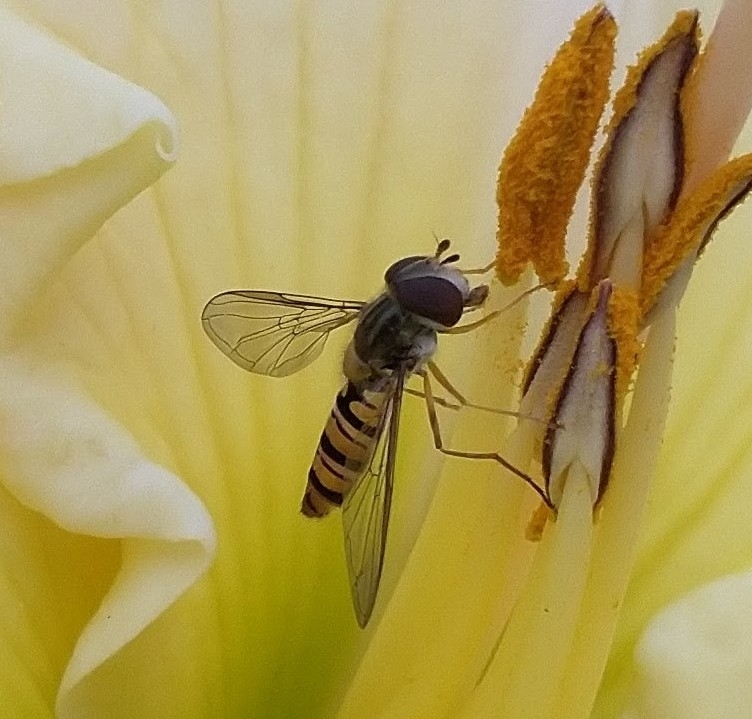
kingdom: Animalia
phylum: Arthropoda
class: Insecta
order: Diptera
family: Syrphidae
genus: Episyrphus
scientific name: Episyrphus balteatus
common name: Marmalade hoverfly
